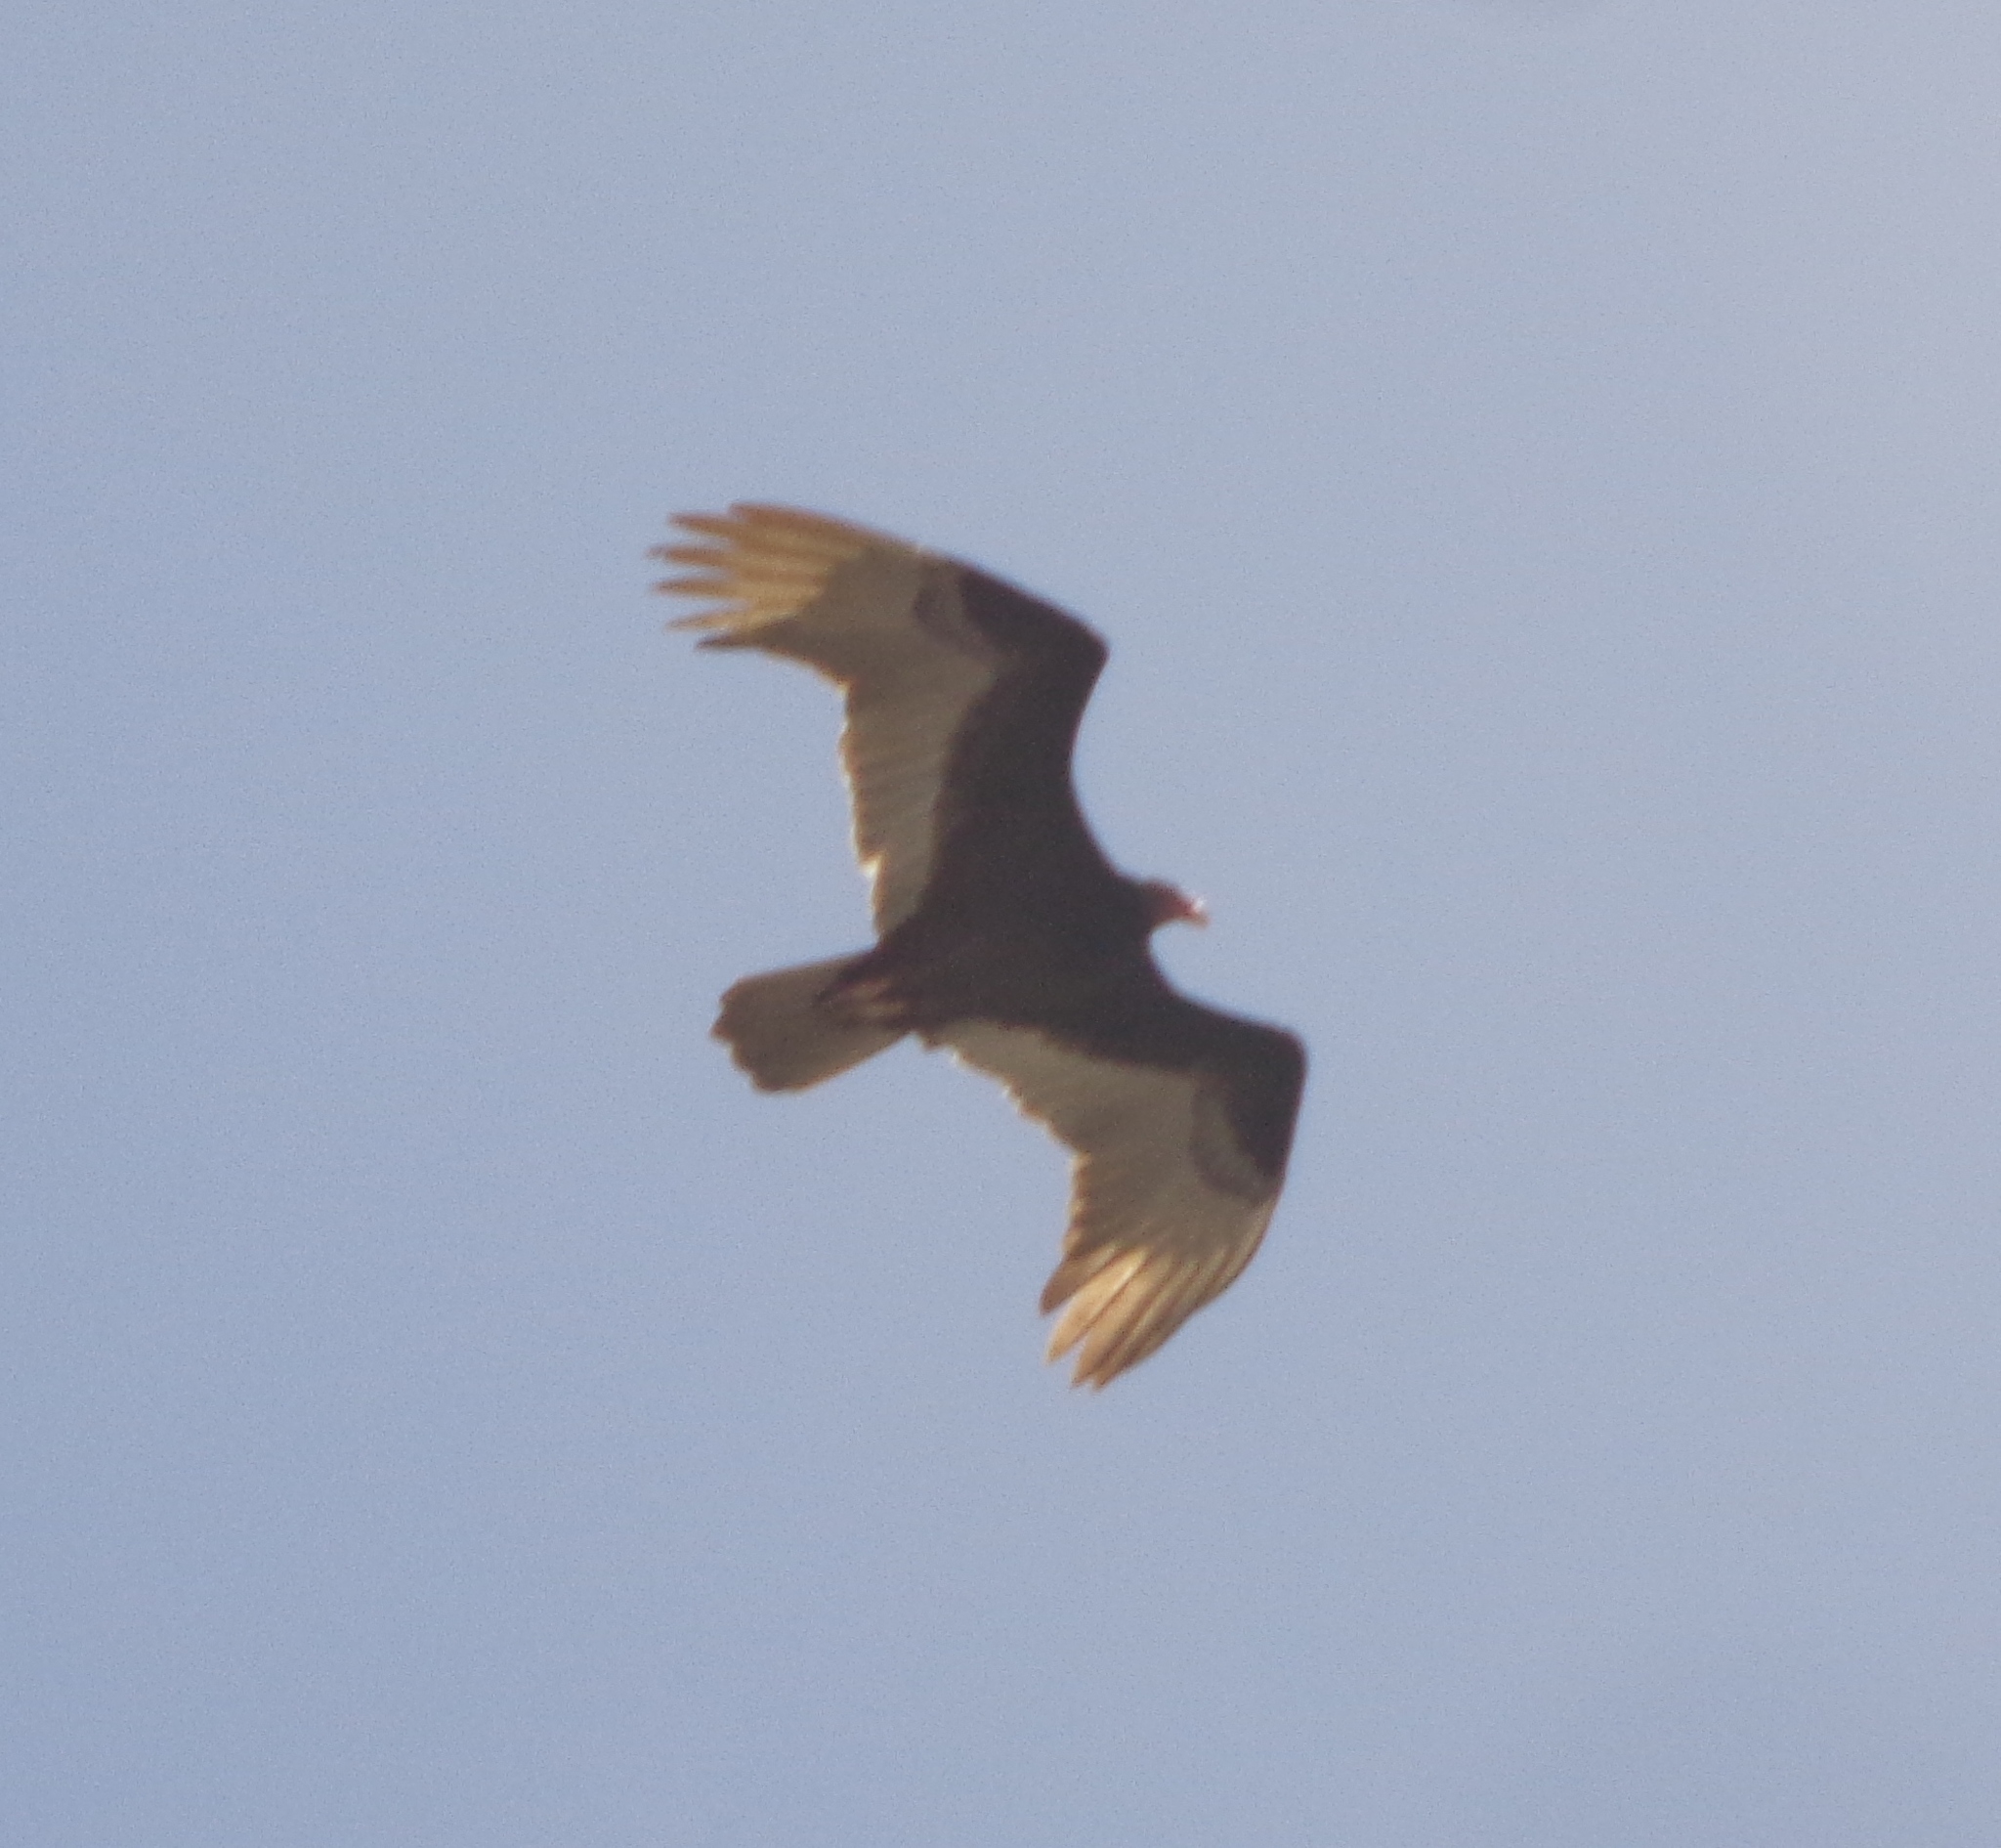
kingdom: Animalia
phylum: Chordata
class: Aves
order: Accipitriformes
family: Cathartidae
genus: Cathartes
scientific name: Cathartes aura
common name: Turkey vulture
